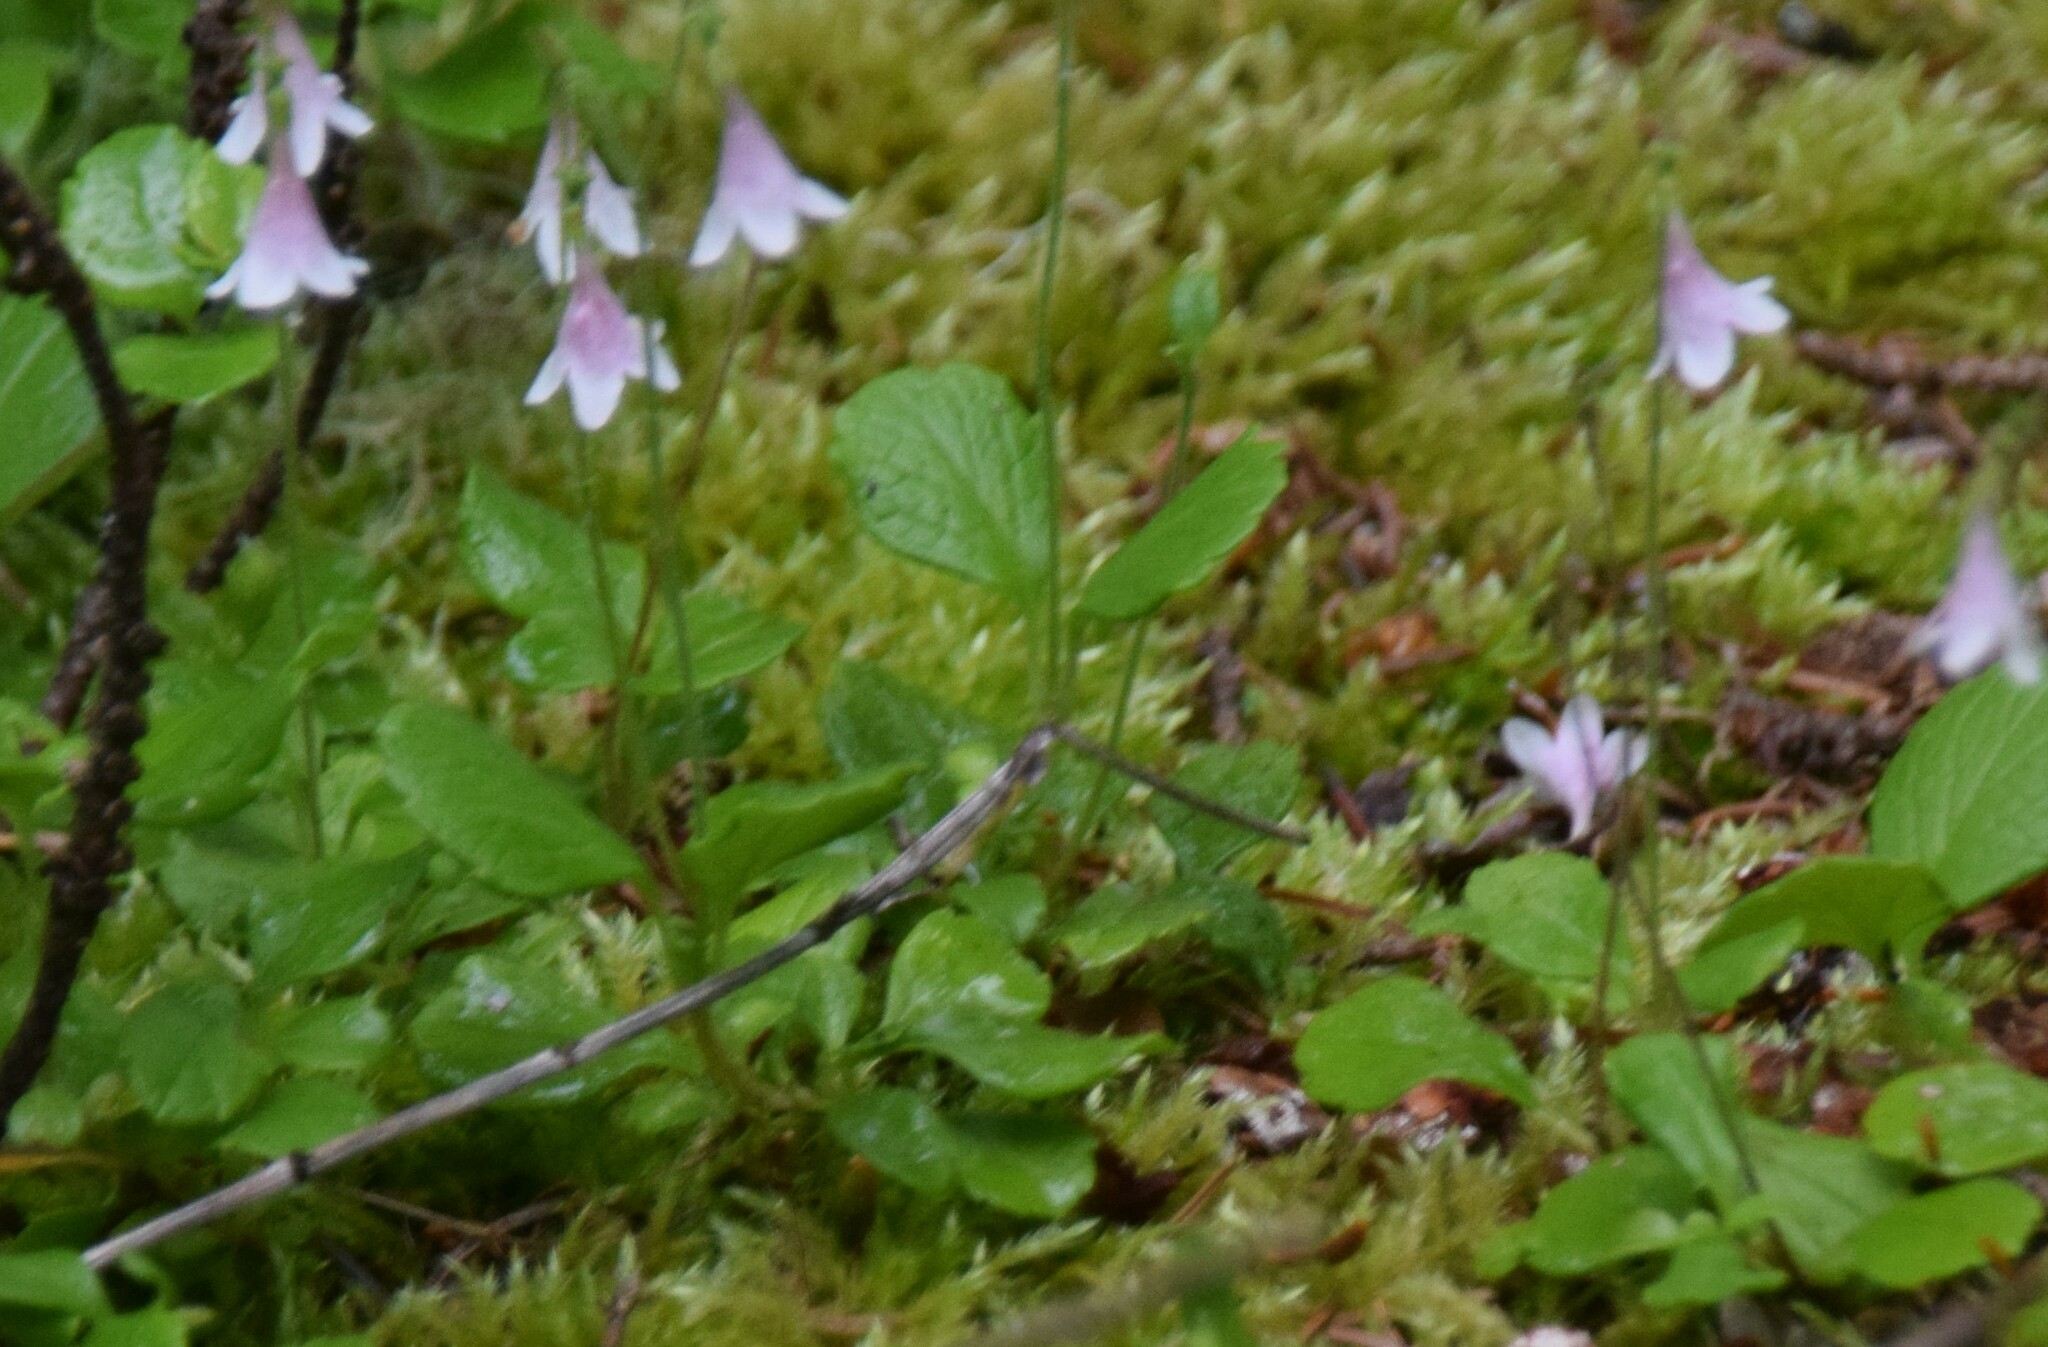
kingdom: Plantae
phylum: Tracheophyta
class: Magnoliopsida
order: Dipsacales
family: Caprifoliaceae
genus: Linnaea
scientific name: Linnaea borealis
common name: Twinflower
